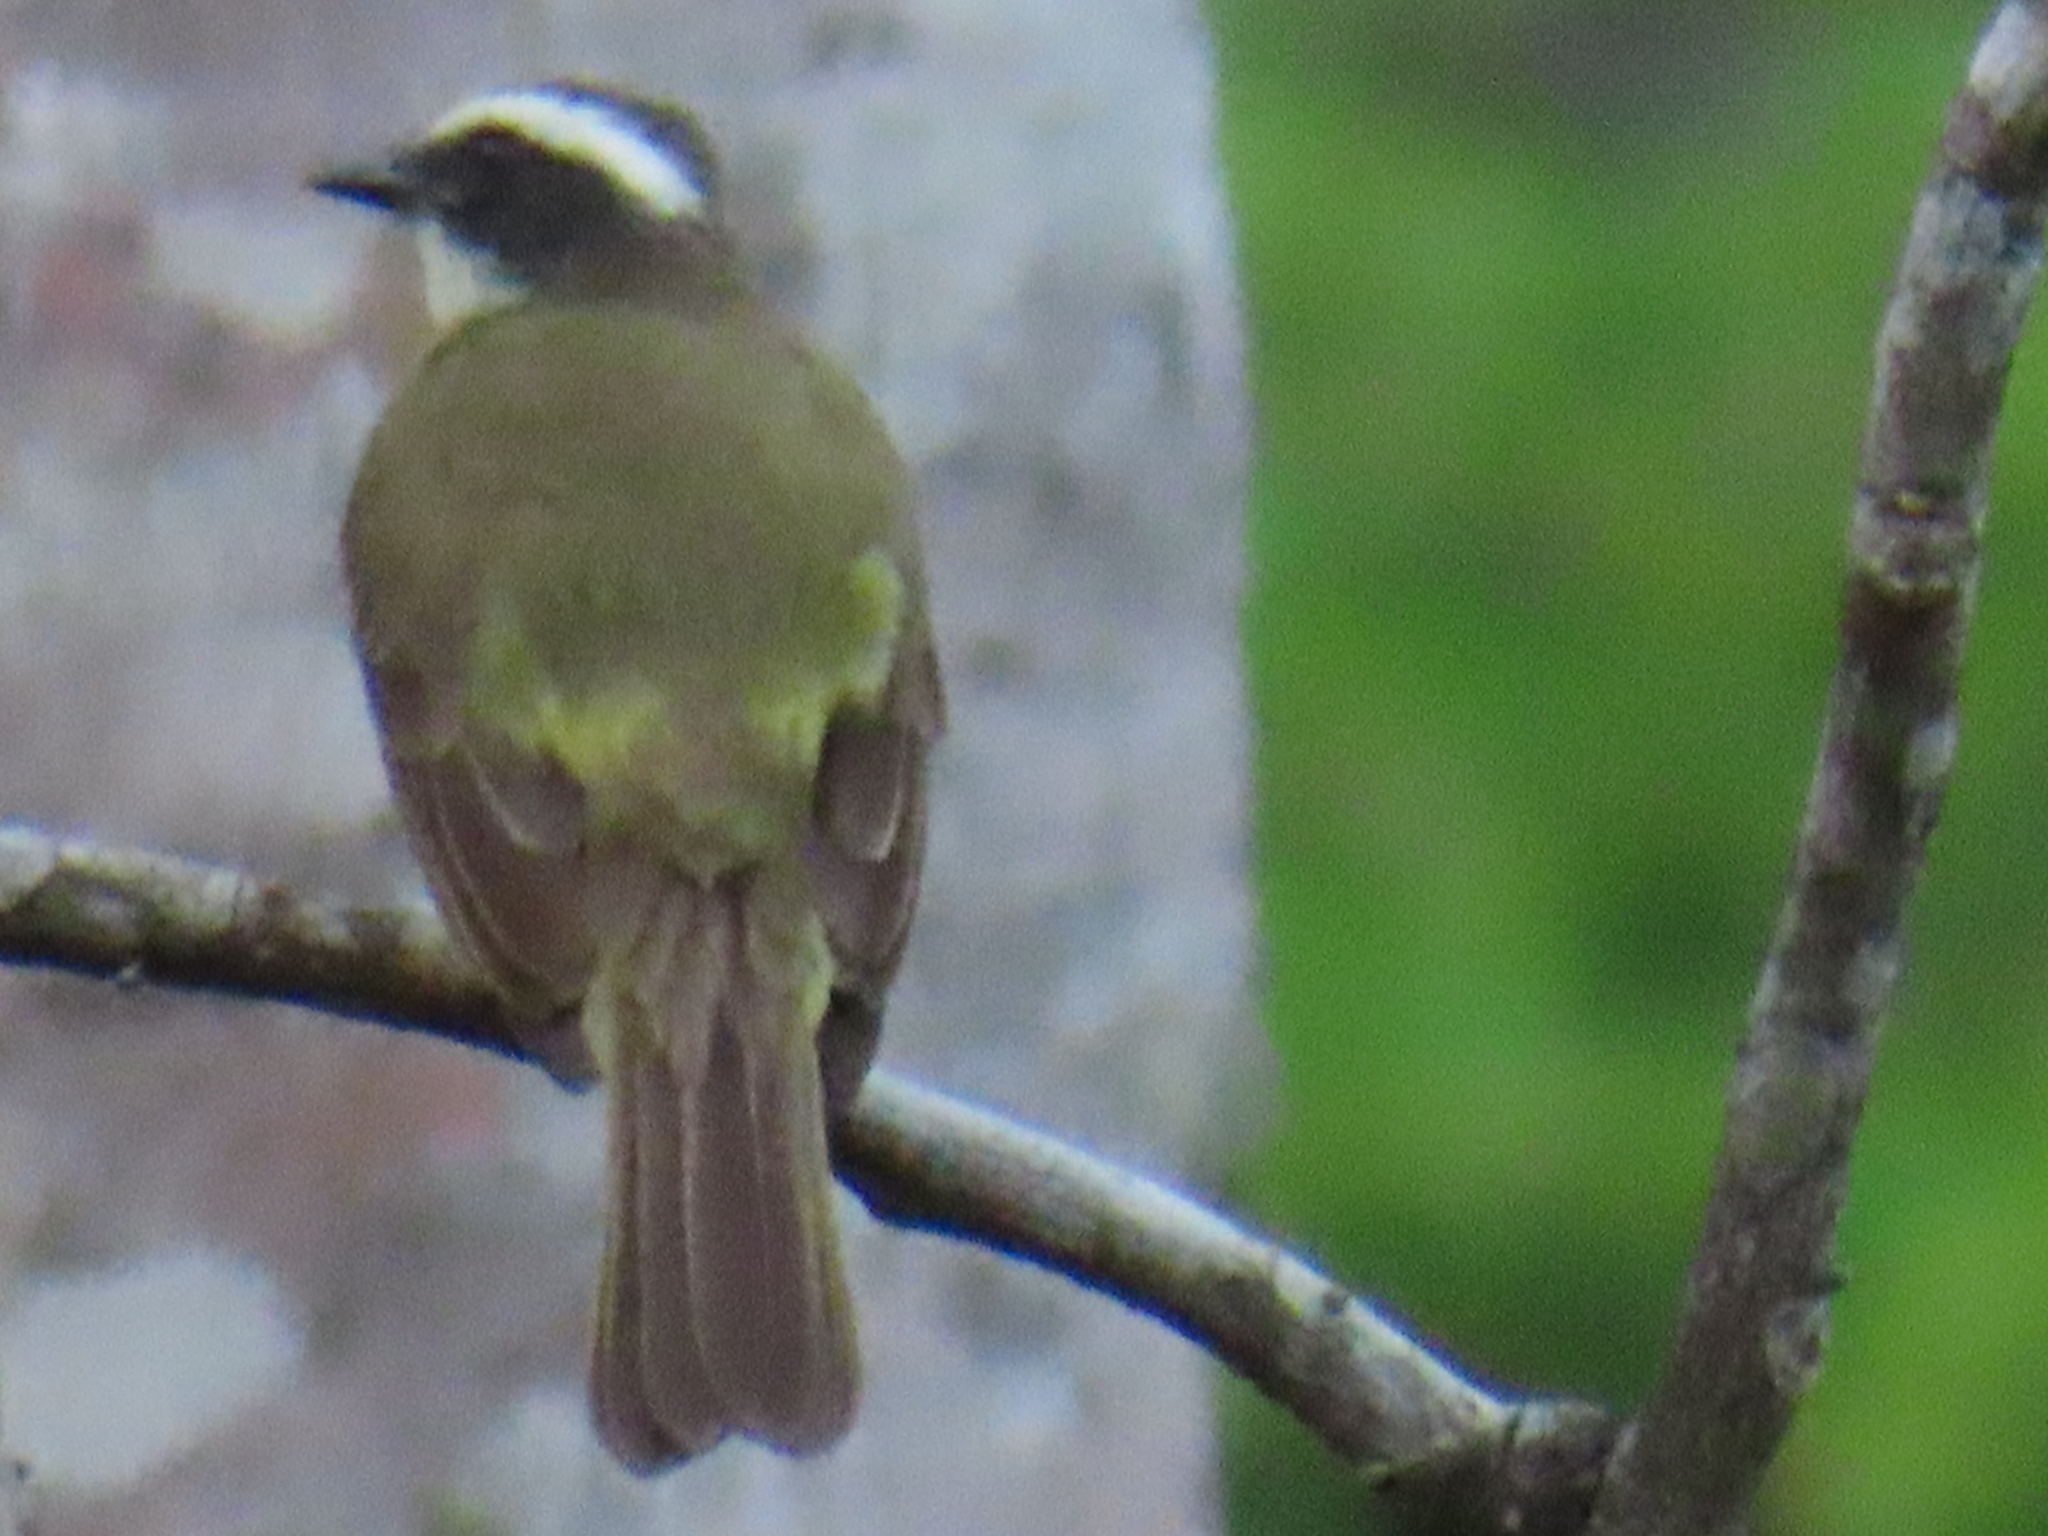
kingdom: Animalia
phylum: Chordata
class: Aves
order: Passeriformes
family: Tyrannidae
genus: Myiozetetes
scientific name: Myiozetetes similis
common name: Social flycatcher
